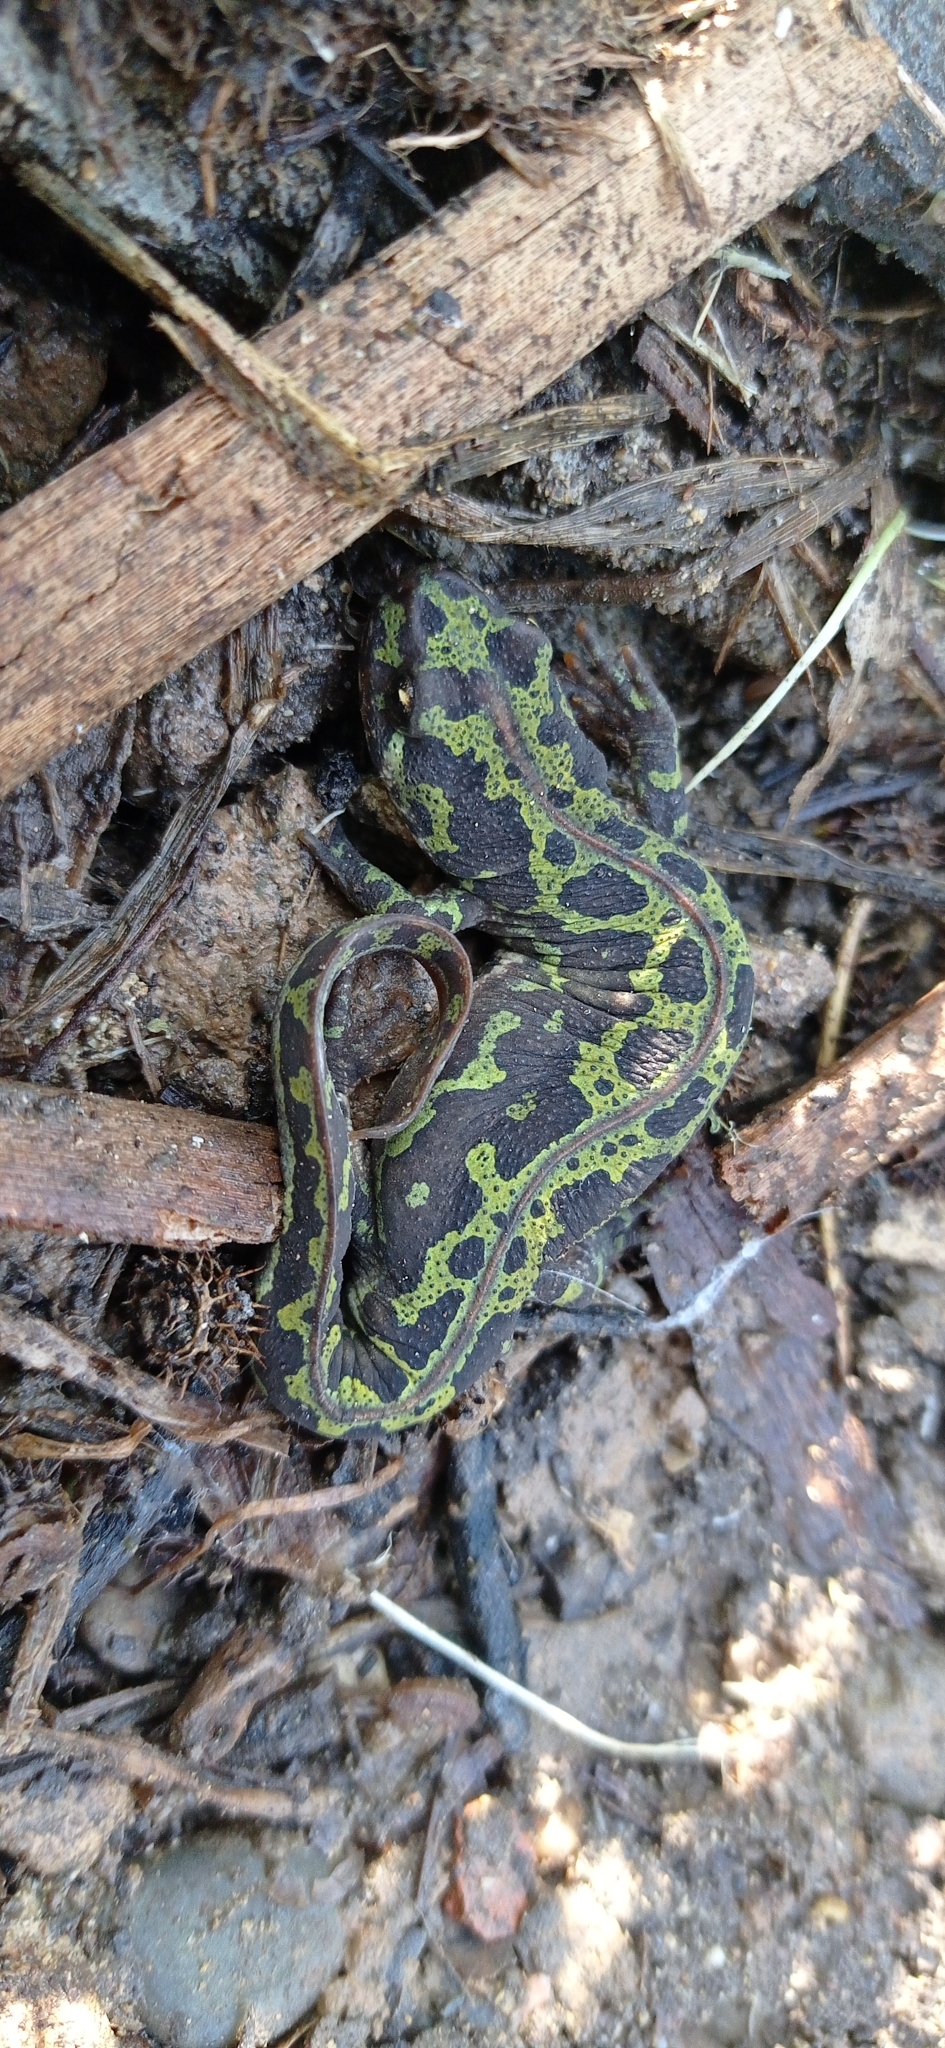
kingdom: Animalia
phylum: Chordata
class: Amphibia
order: Caudata
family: Salamandridae
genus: Triturus
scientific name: Triturus pygmaeus
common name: Southern marbled newt
